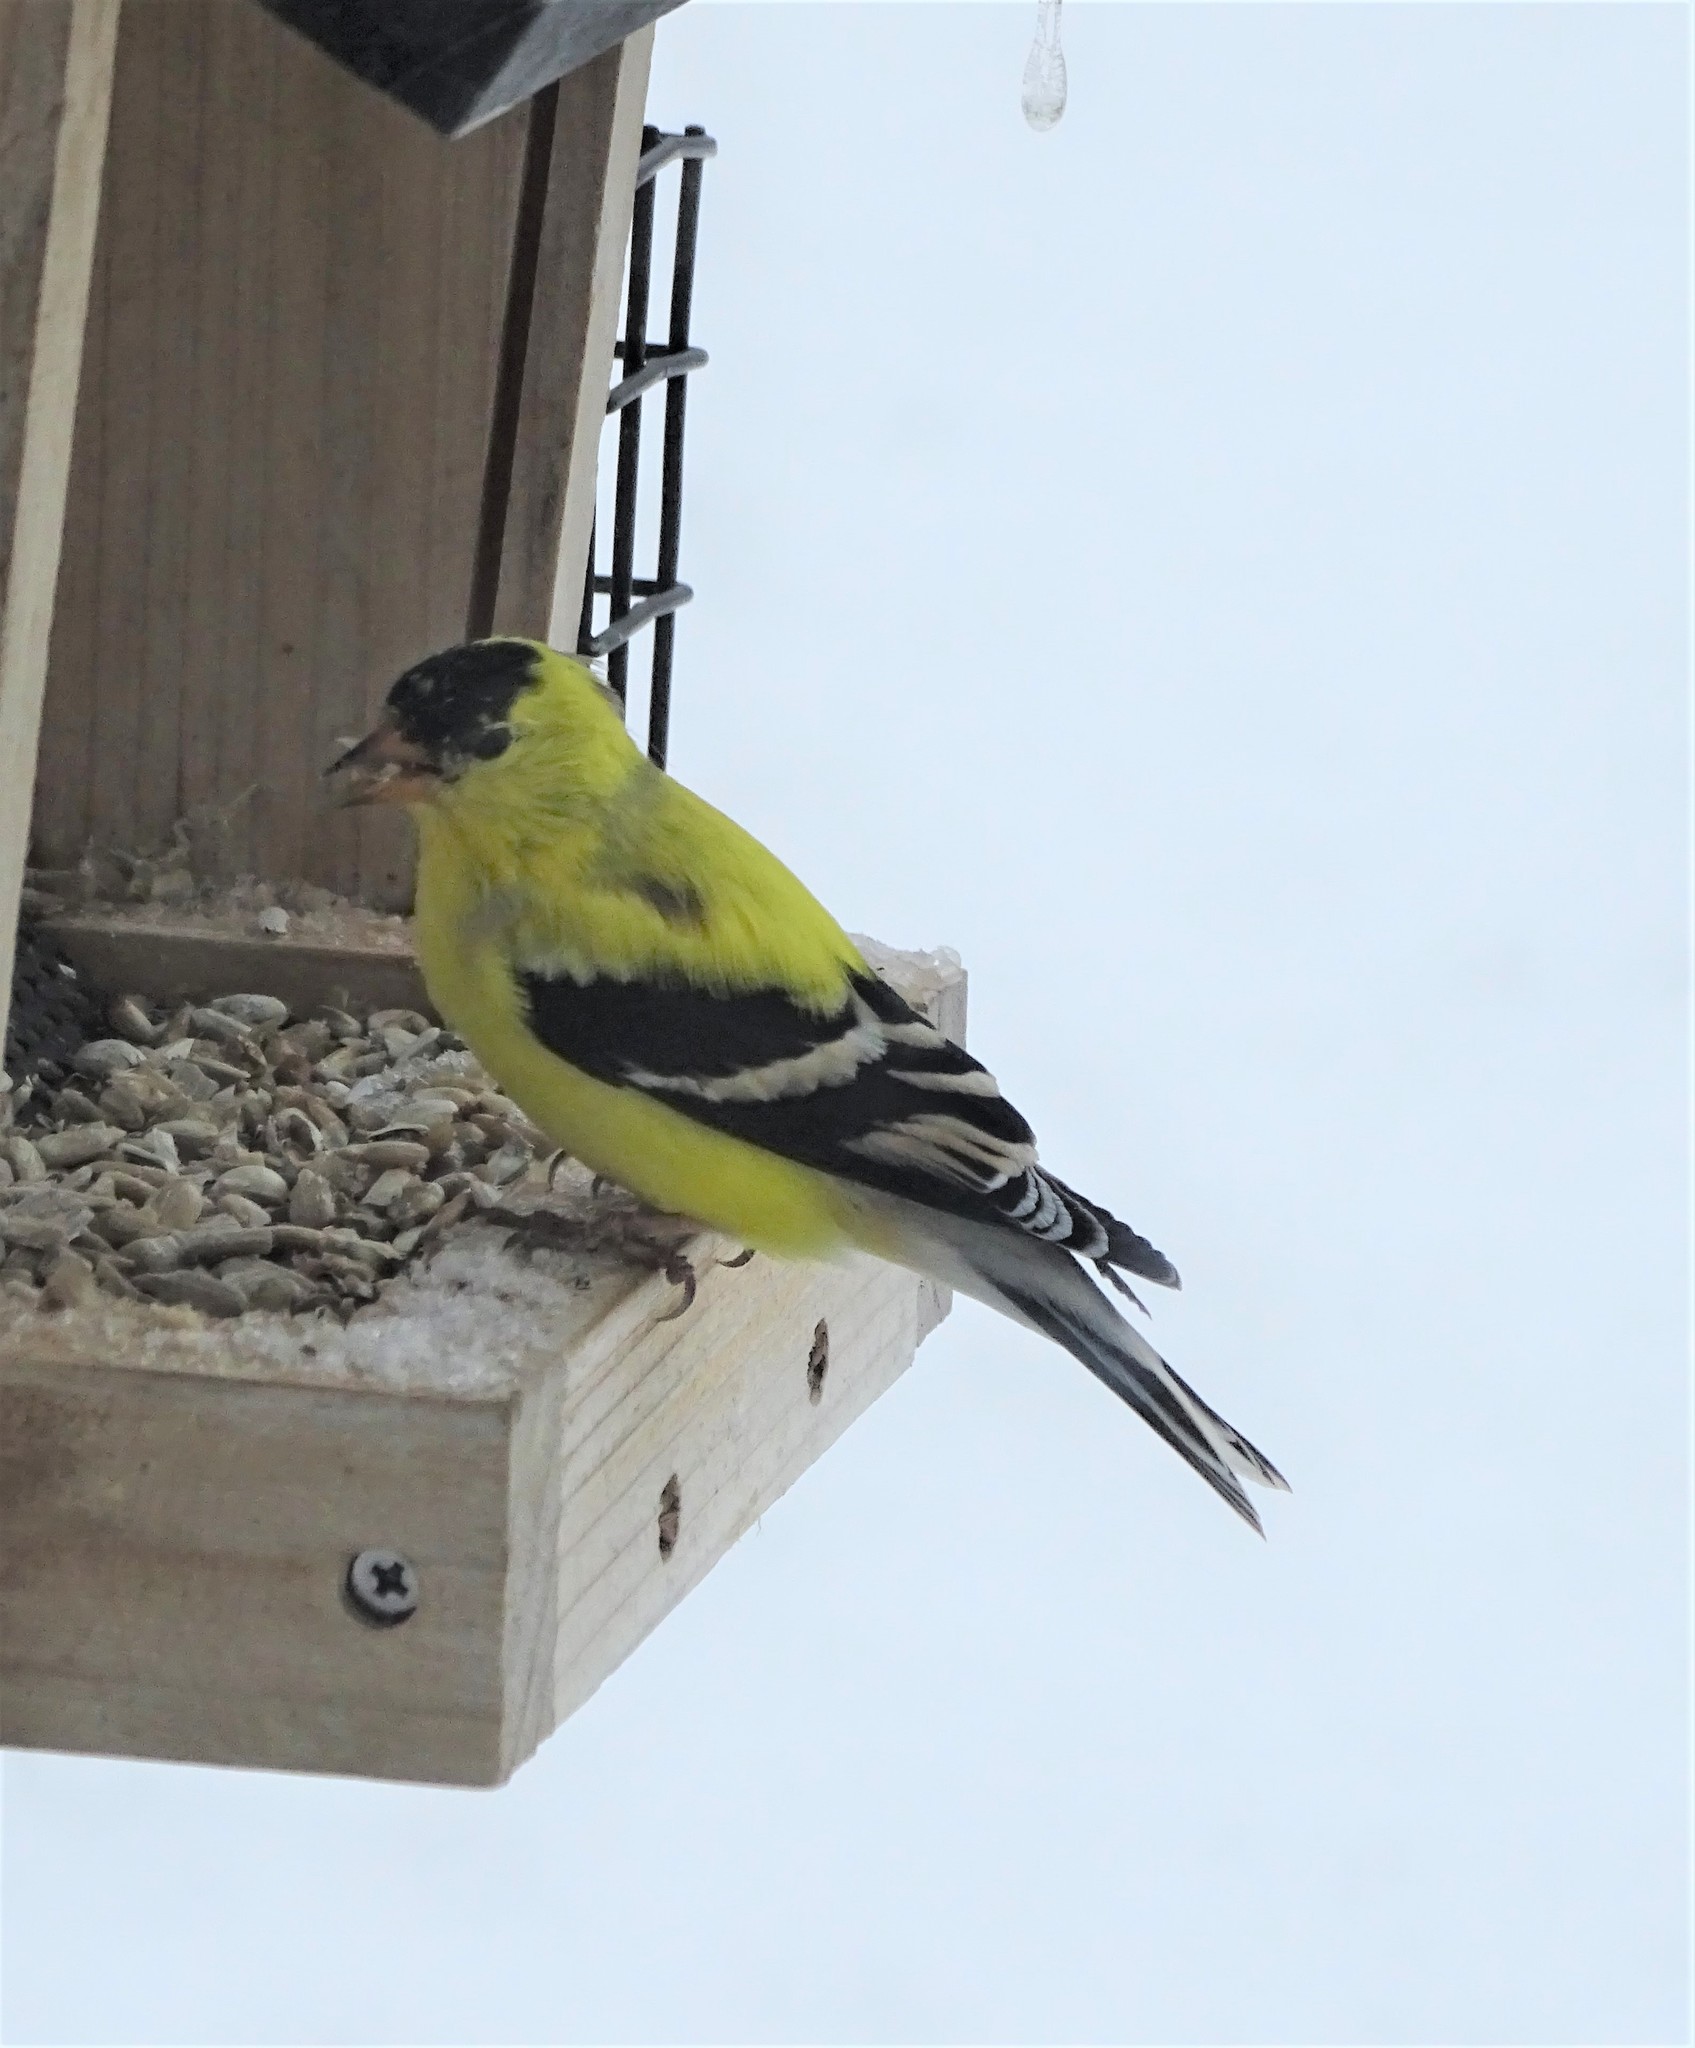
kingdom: Animalia
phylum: Chordata
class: Aves
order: Passeriformes
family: Fringillidae
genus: Spinus
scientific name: Spinus tristis
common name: American goldfinch
